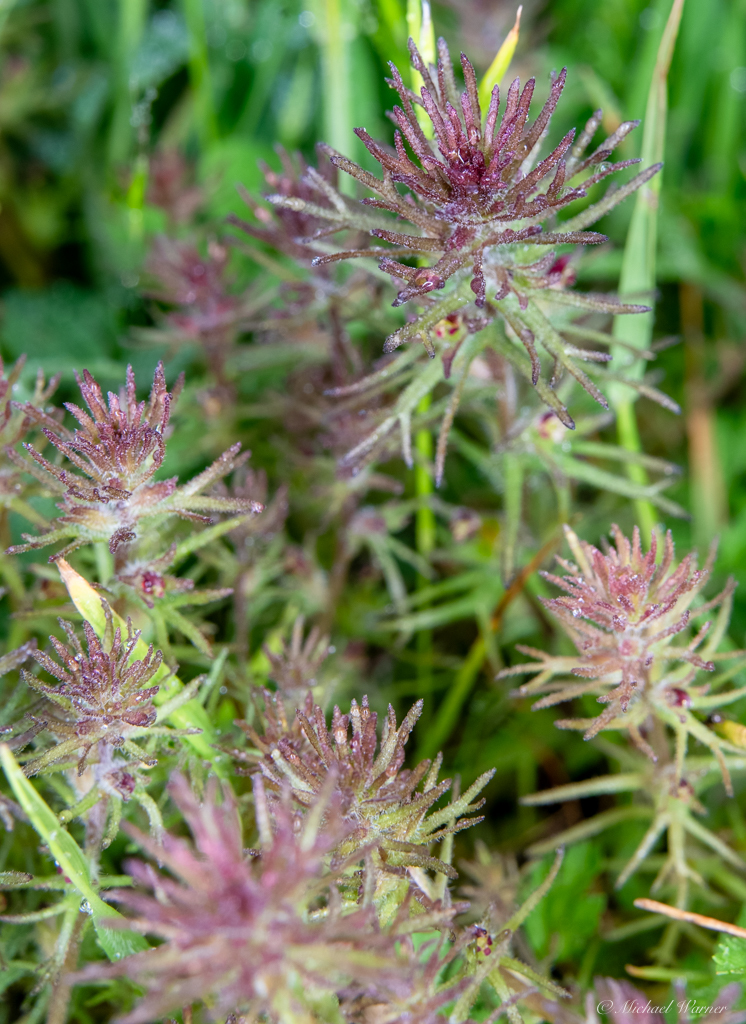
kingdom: Plantae
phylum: Tracheophyta
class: Magnoliopsida
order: Lamiales
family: Orobanchaceae
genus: Triphysaria
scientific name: Triphysaria pusilla
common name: Dwarf false owl-clover
